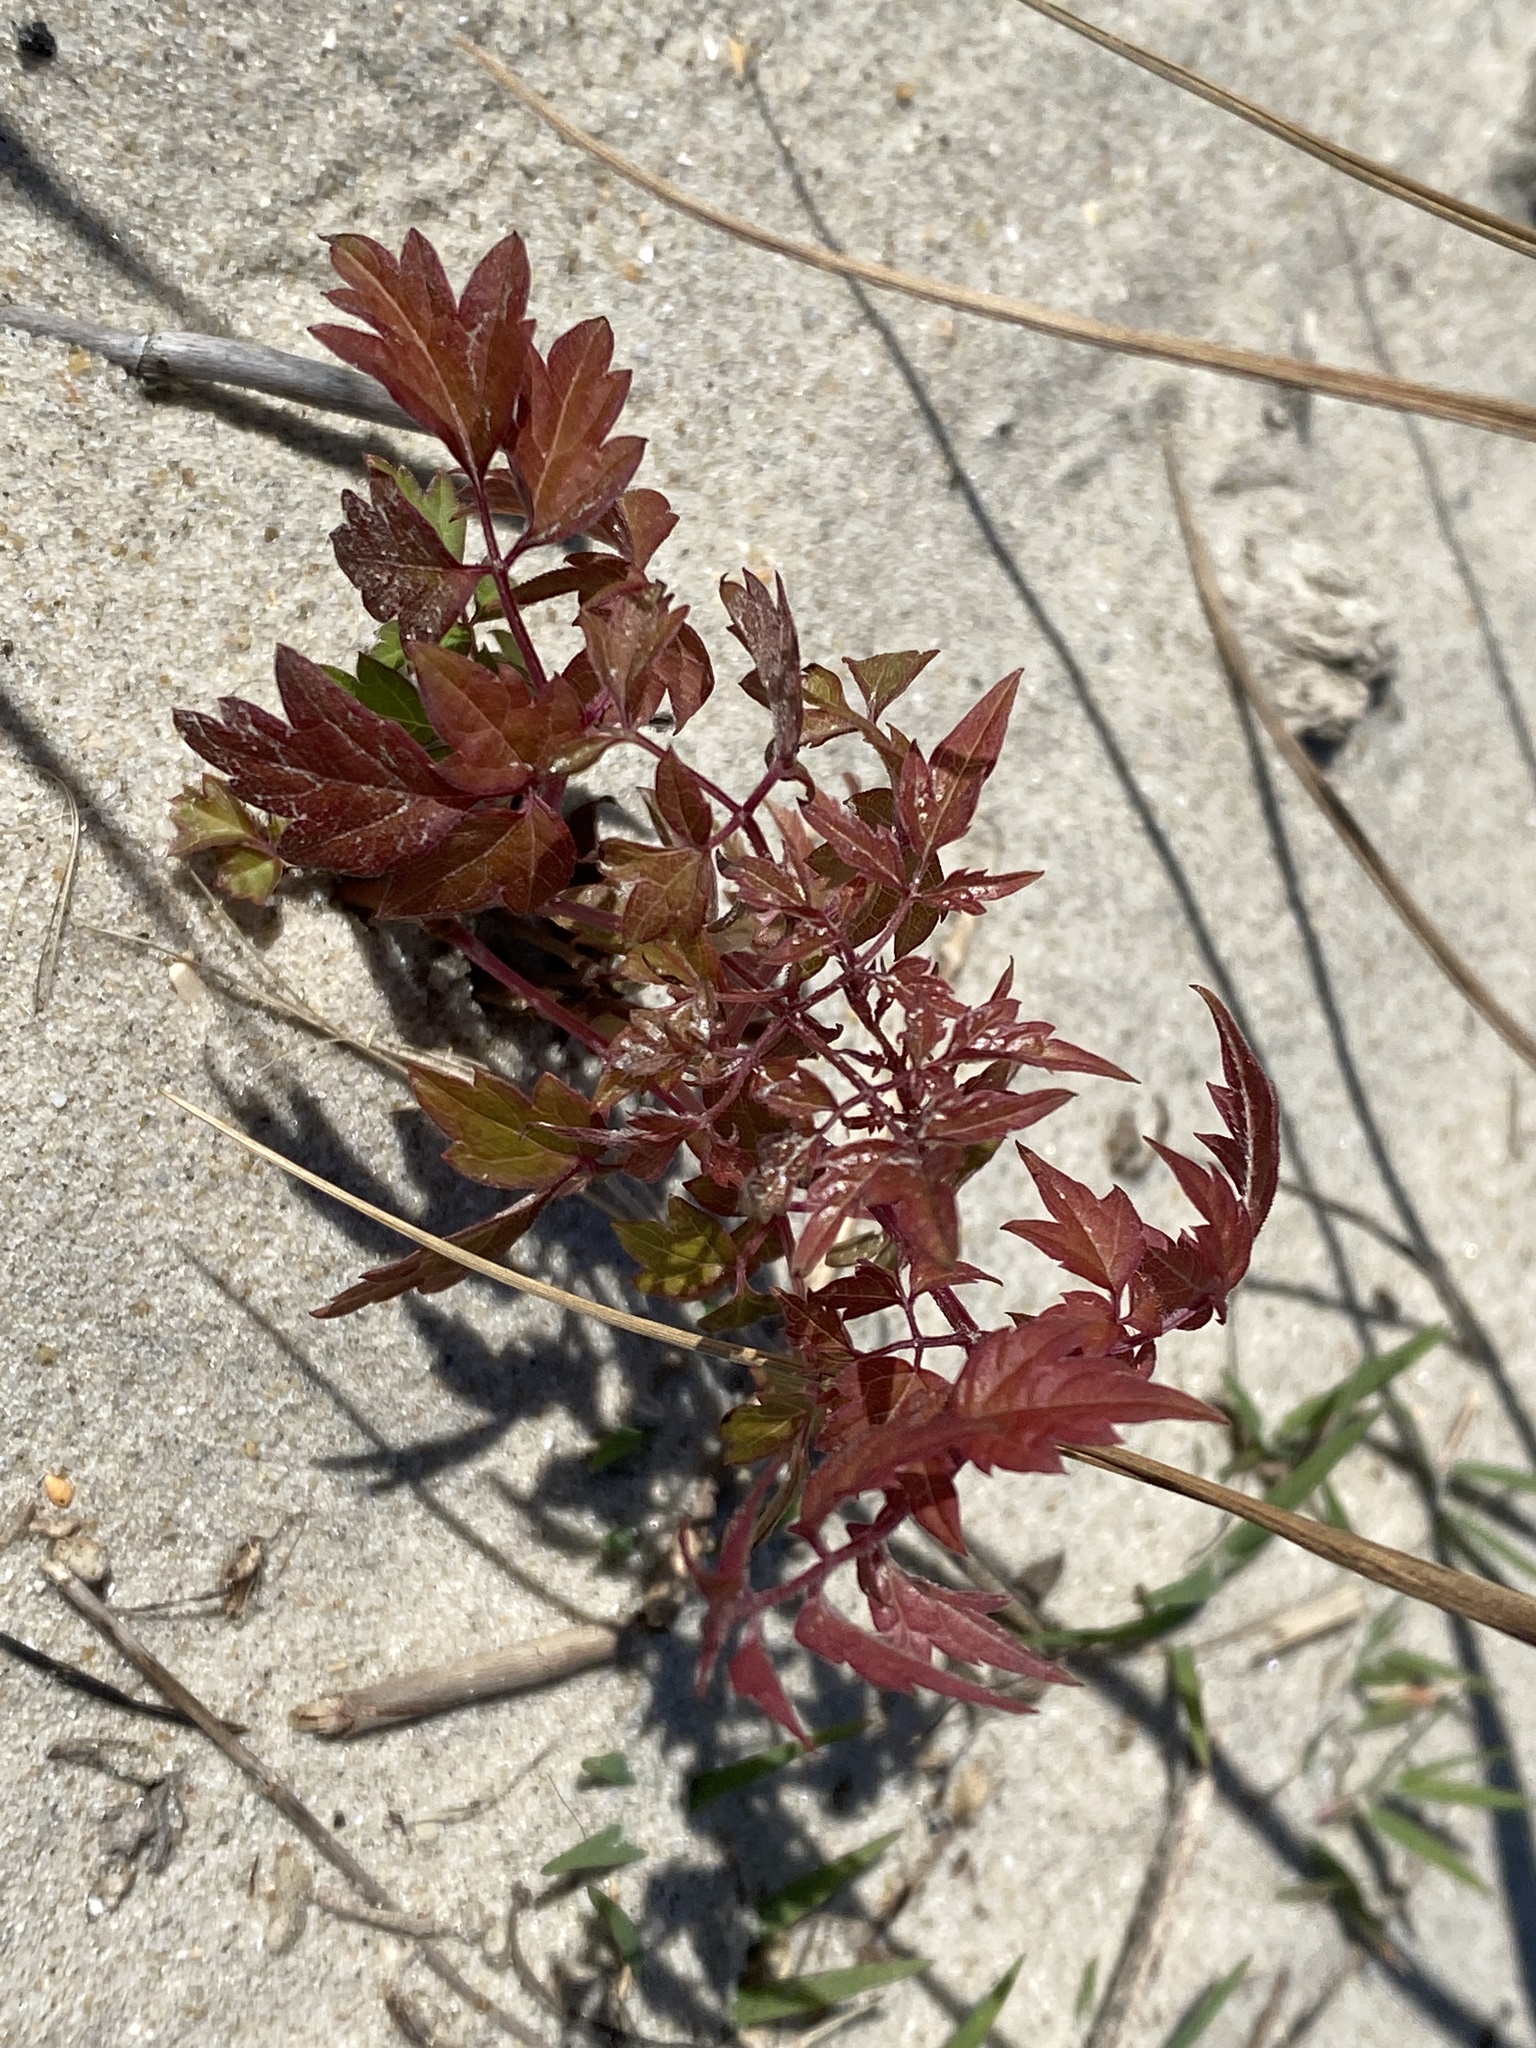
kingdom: Plantae
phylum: Tracheophyta
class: Magnoliopsida
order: Vitales
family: Vitaceae
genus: Nekemias
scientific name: Nekemias arborea
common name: Peppervine
